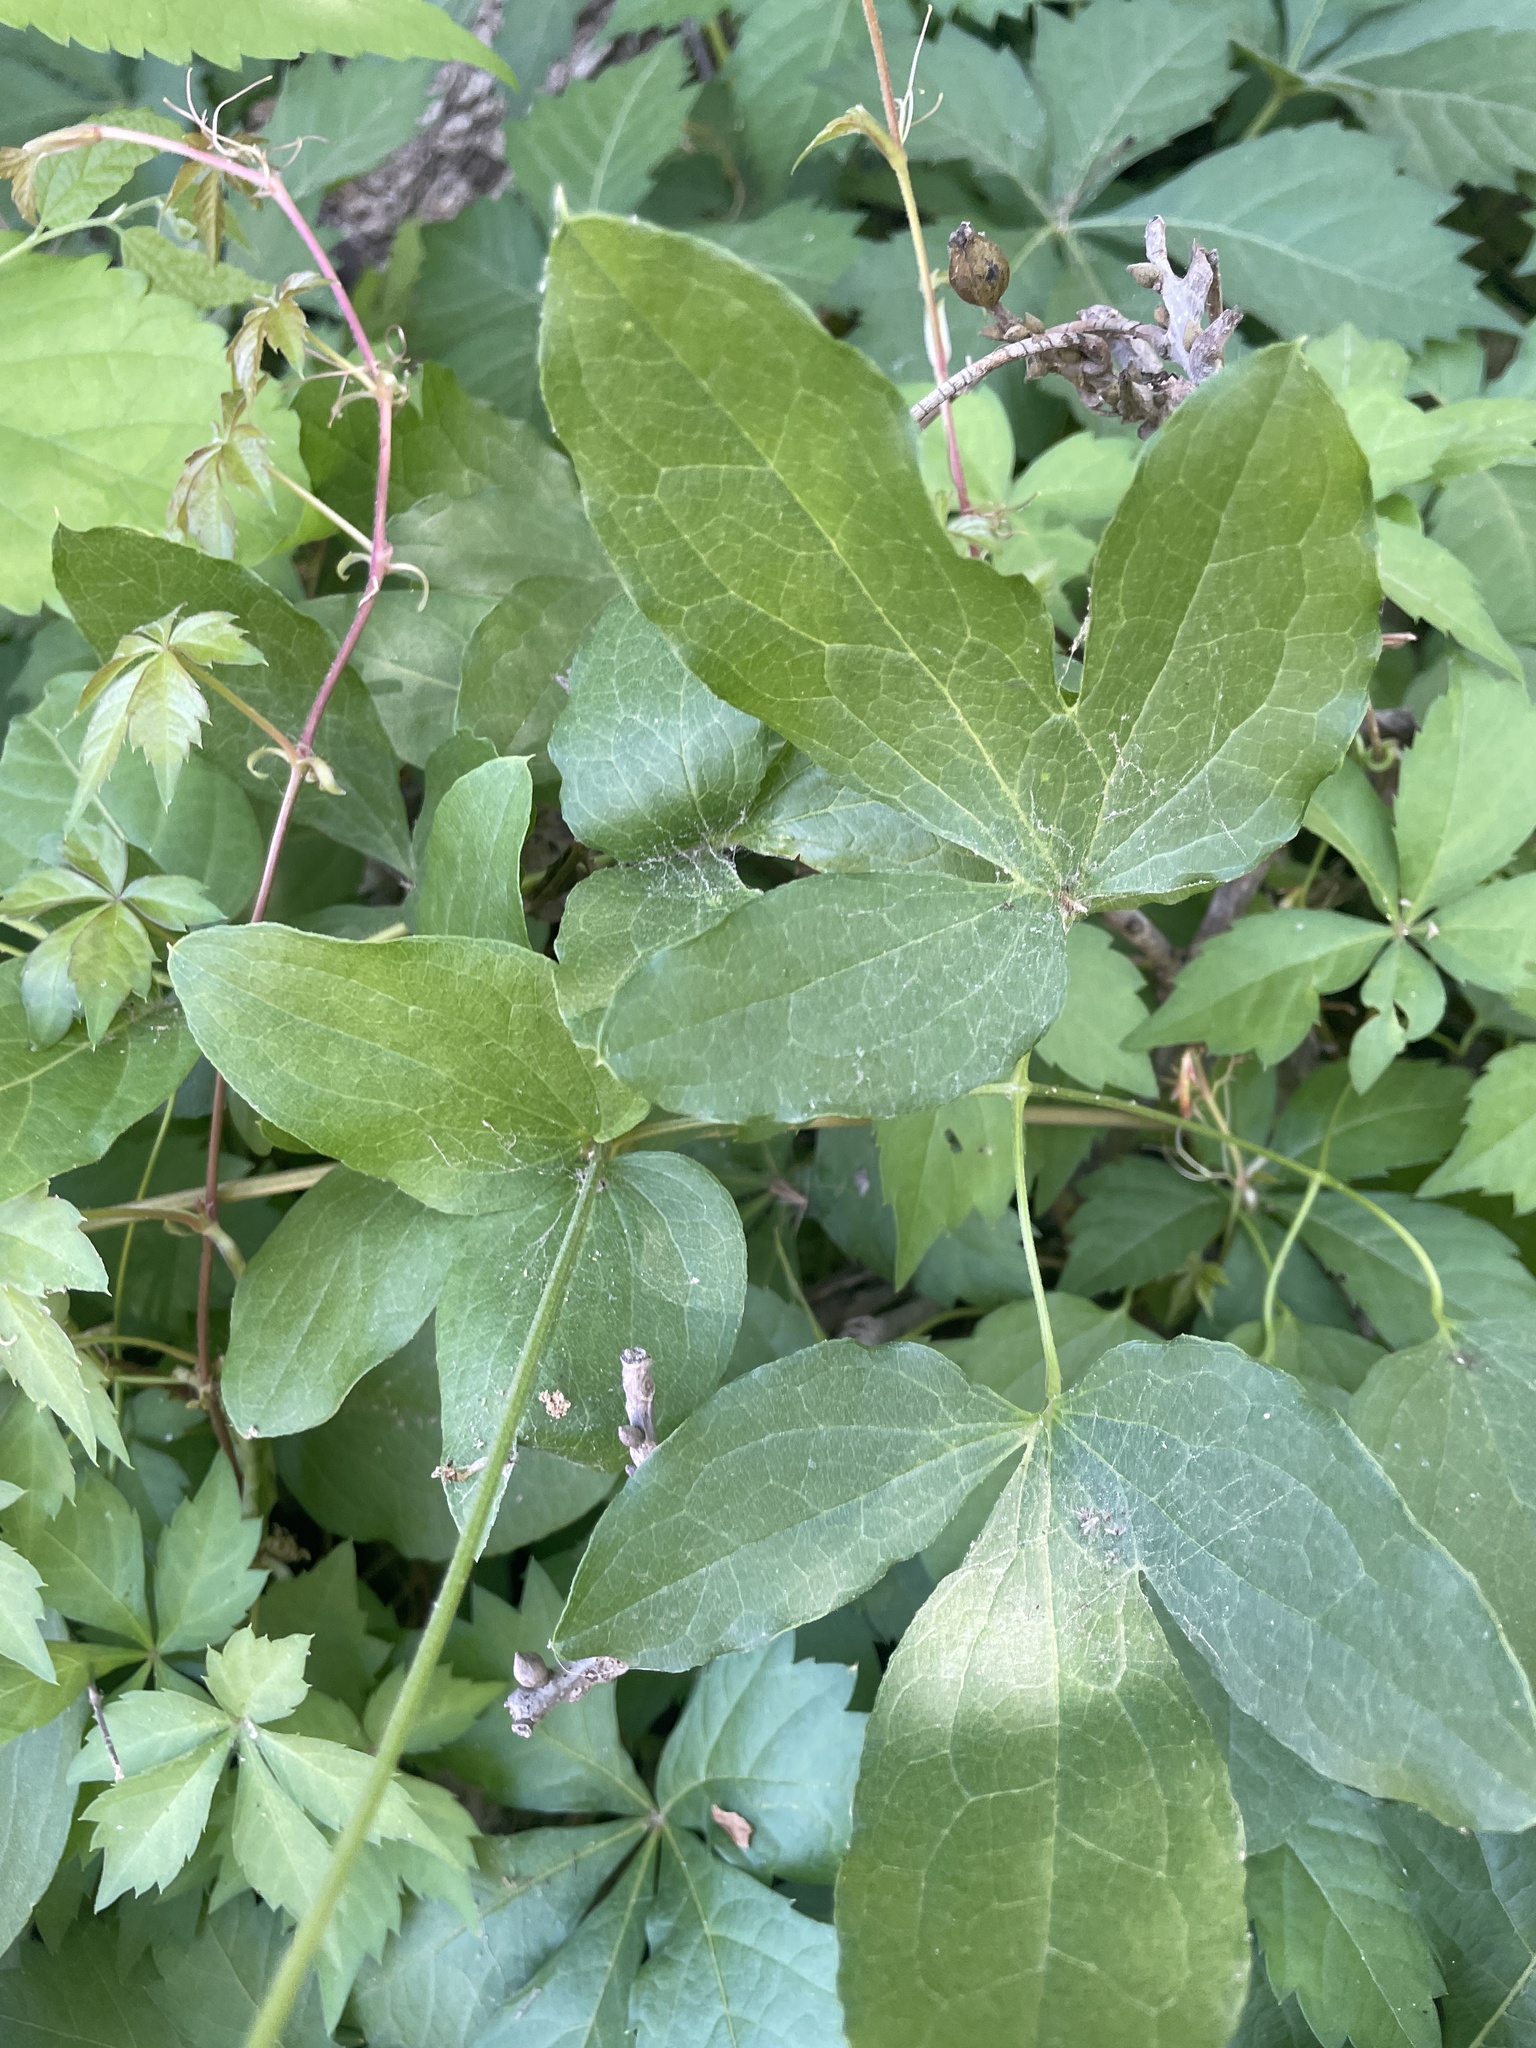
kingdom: Plantae
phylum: Tracheophyta
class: Magnoliopsida
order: Ranunculales
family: Ranunculaceae
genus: Clematis
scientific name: Clematis pitcheri
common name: Bellflower clematis
